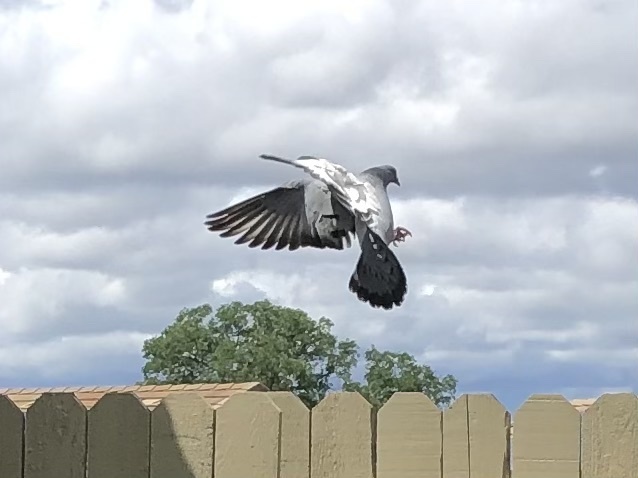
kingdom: Animalia
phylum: Chordata
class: Aves
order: Columbiformes
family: Columbidae
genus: Columba
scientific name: Columba livia
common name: Rock pigeon
